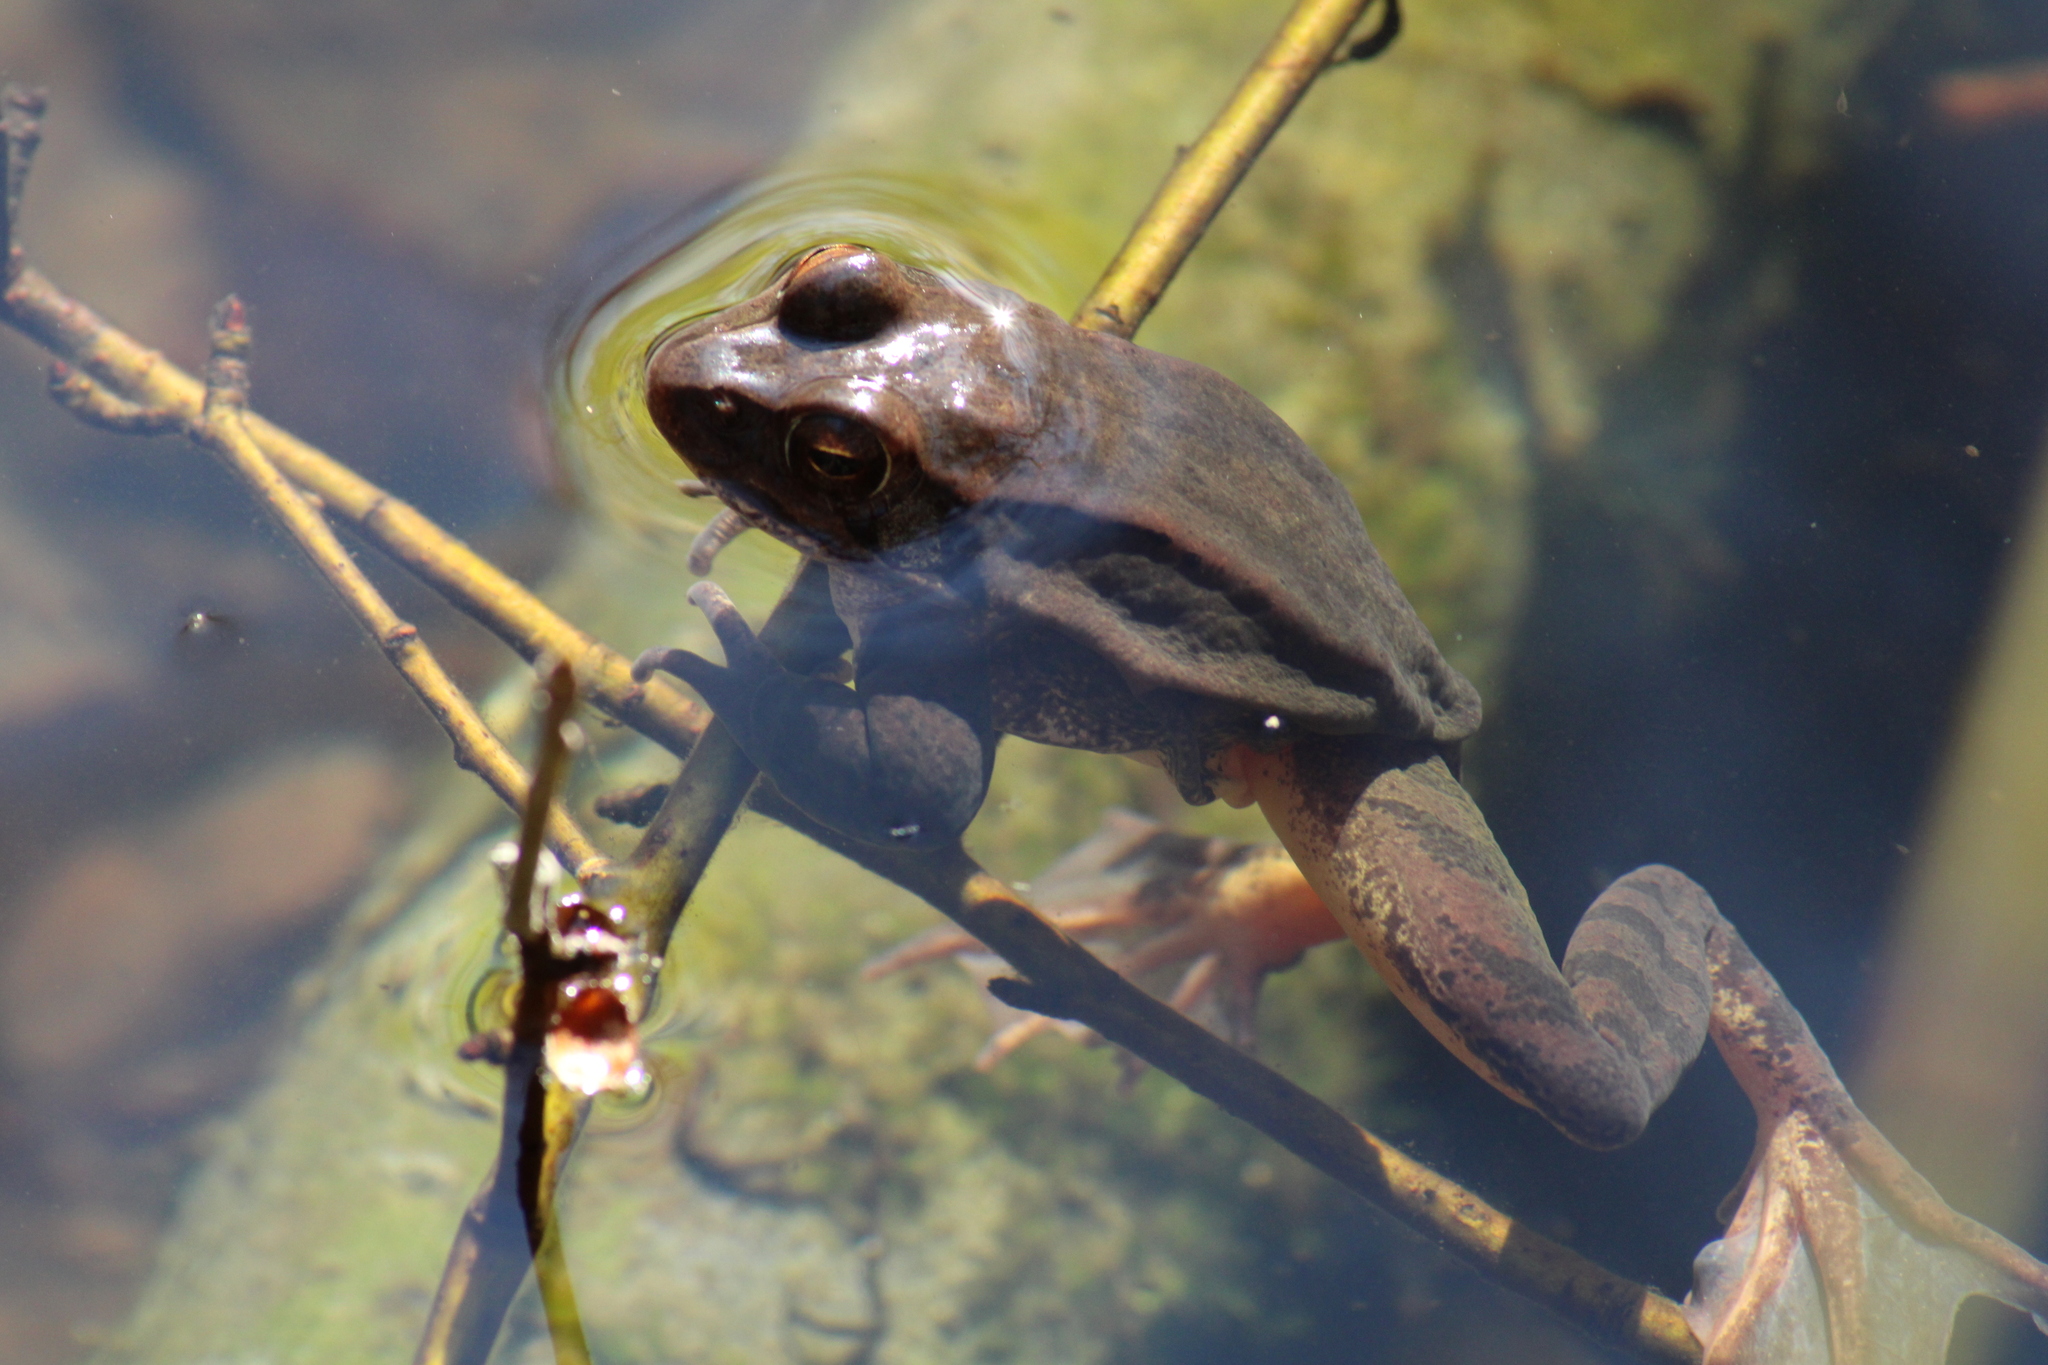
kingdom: Animalia
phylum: Chordata
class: Amphibia
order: Anura
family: Ranidae
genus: Rana
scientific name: Rana dalmatina
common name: Agile frog
